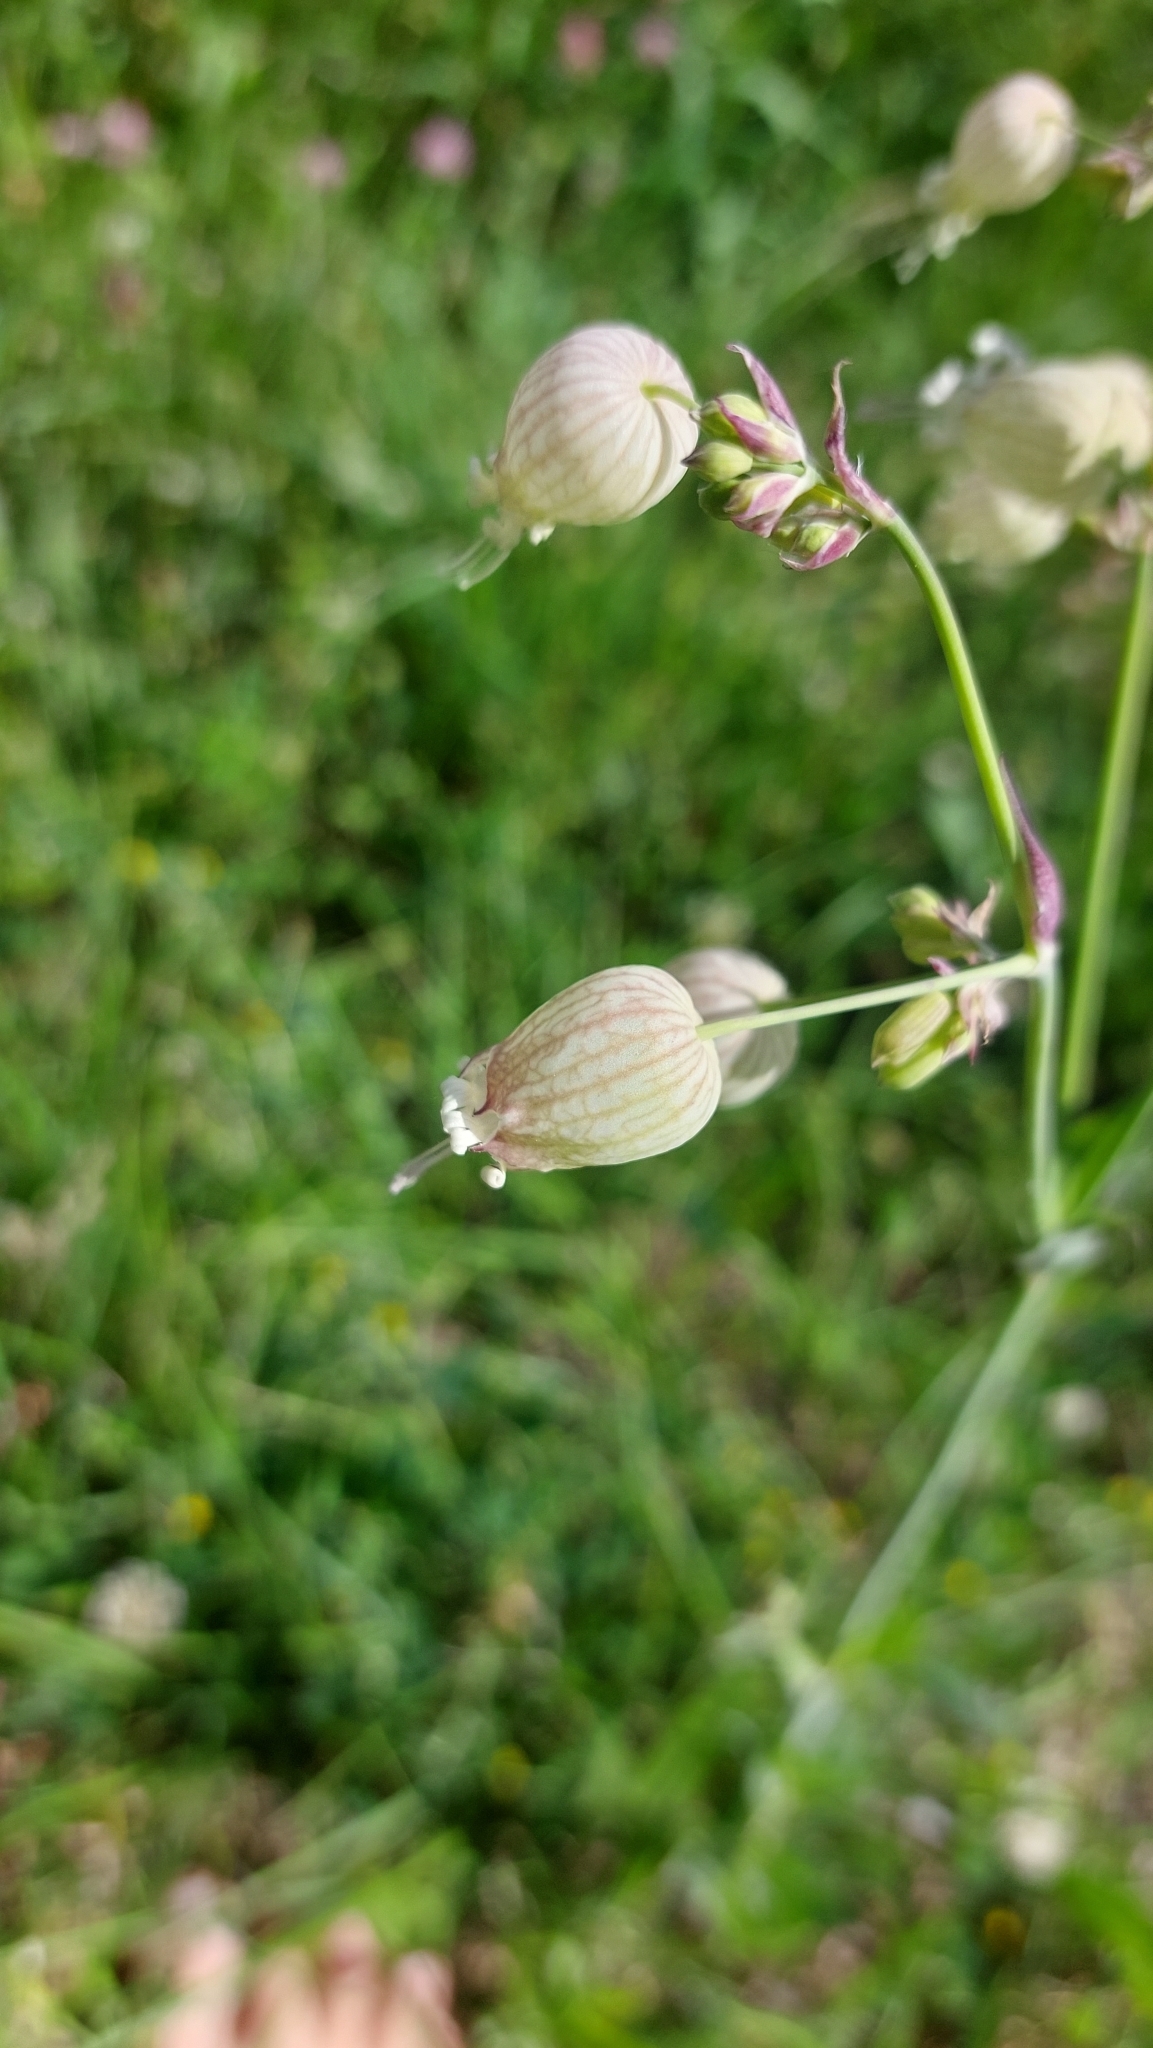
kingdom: Plantae
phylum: Tracheophyta
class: Magnoliopsida
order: Caryophyllales
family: Caryophyllaceae
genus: Silene
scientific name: Silene vulgaris
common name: Bladder campion
